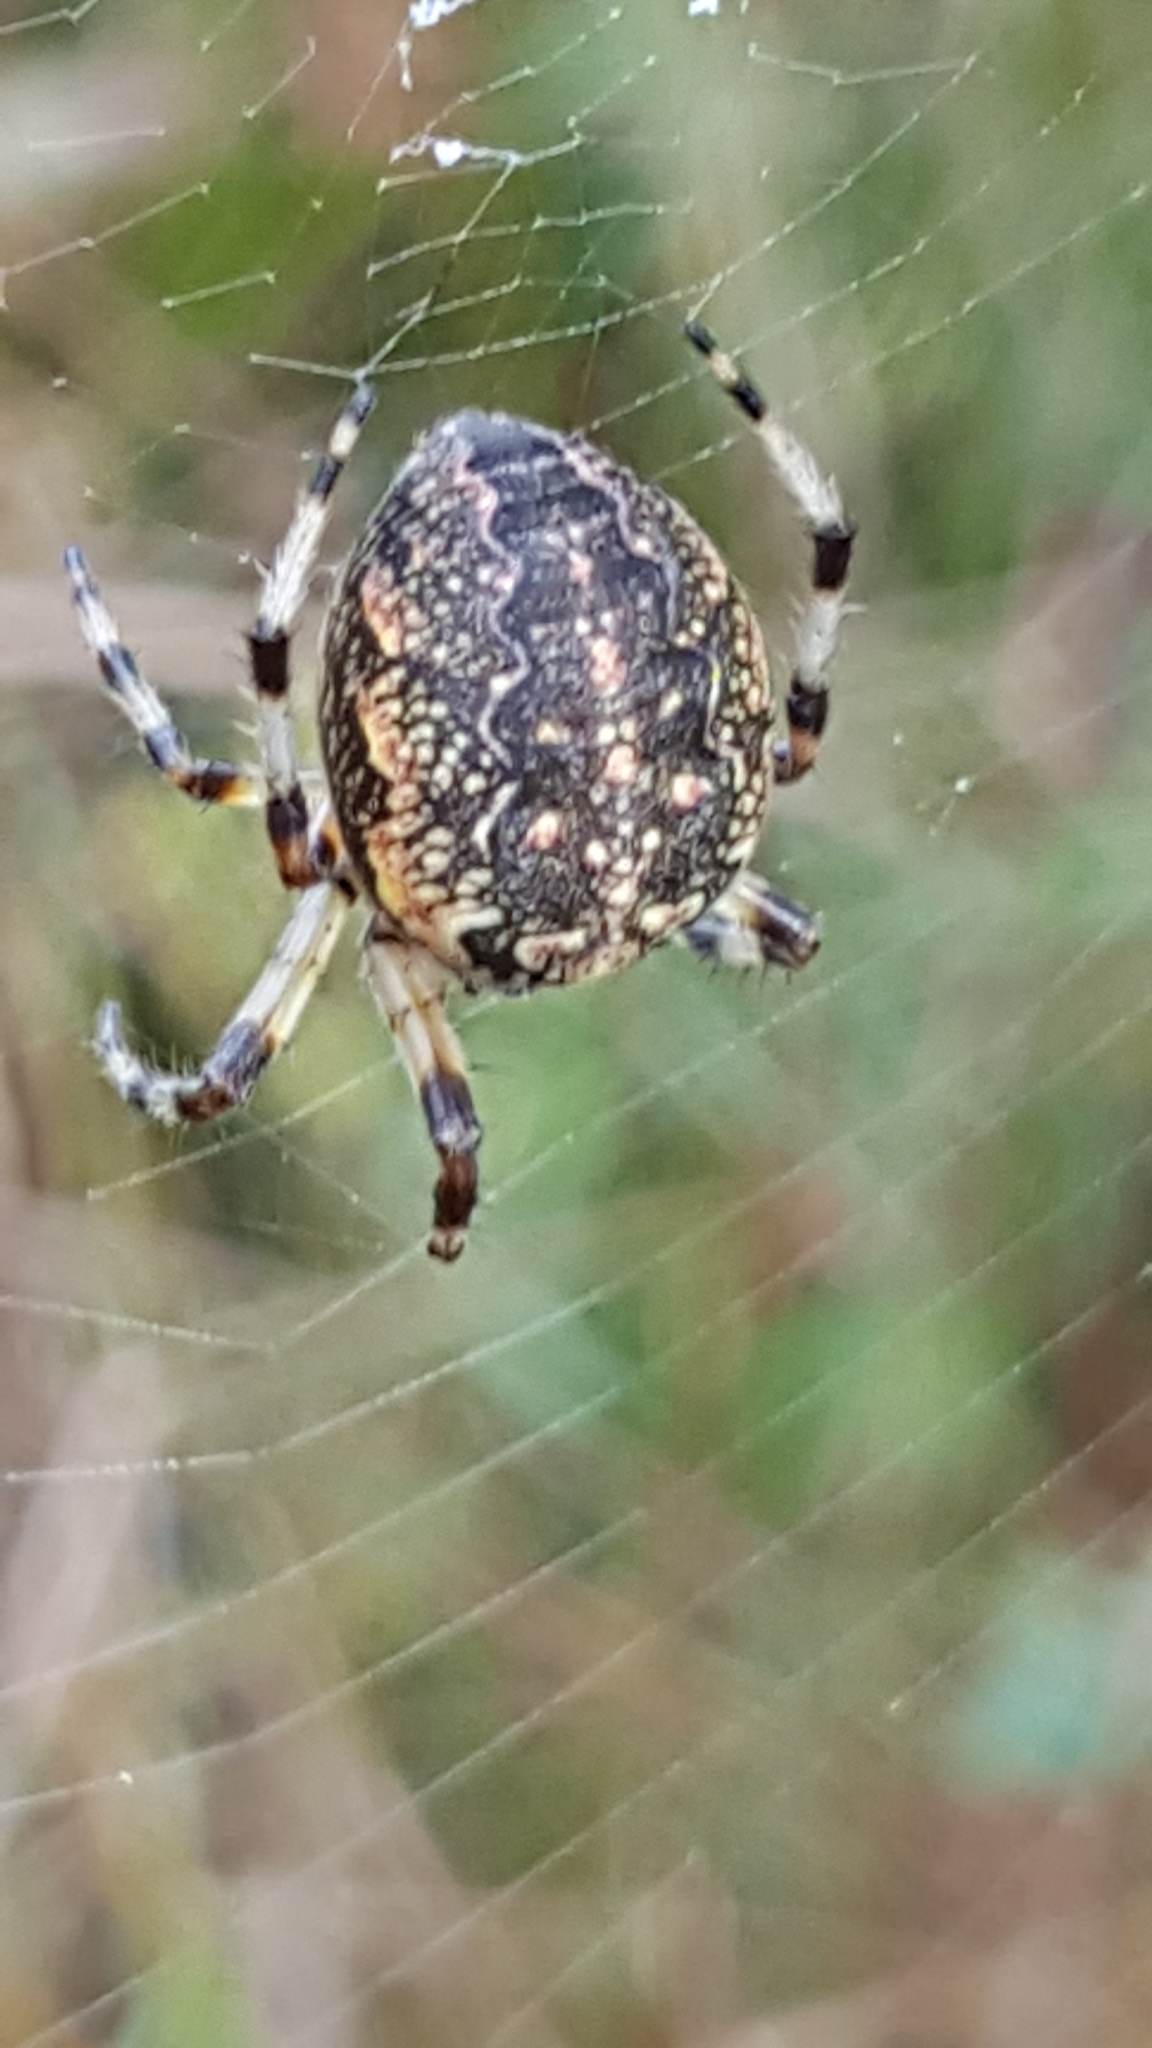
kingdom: Animalia
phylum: Arthropoda
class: Arachnida
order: Araneae
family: Araneidae
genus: Araneus
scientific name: Araneus marmoreus
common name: Marbled orbweaver
